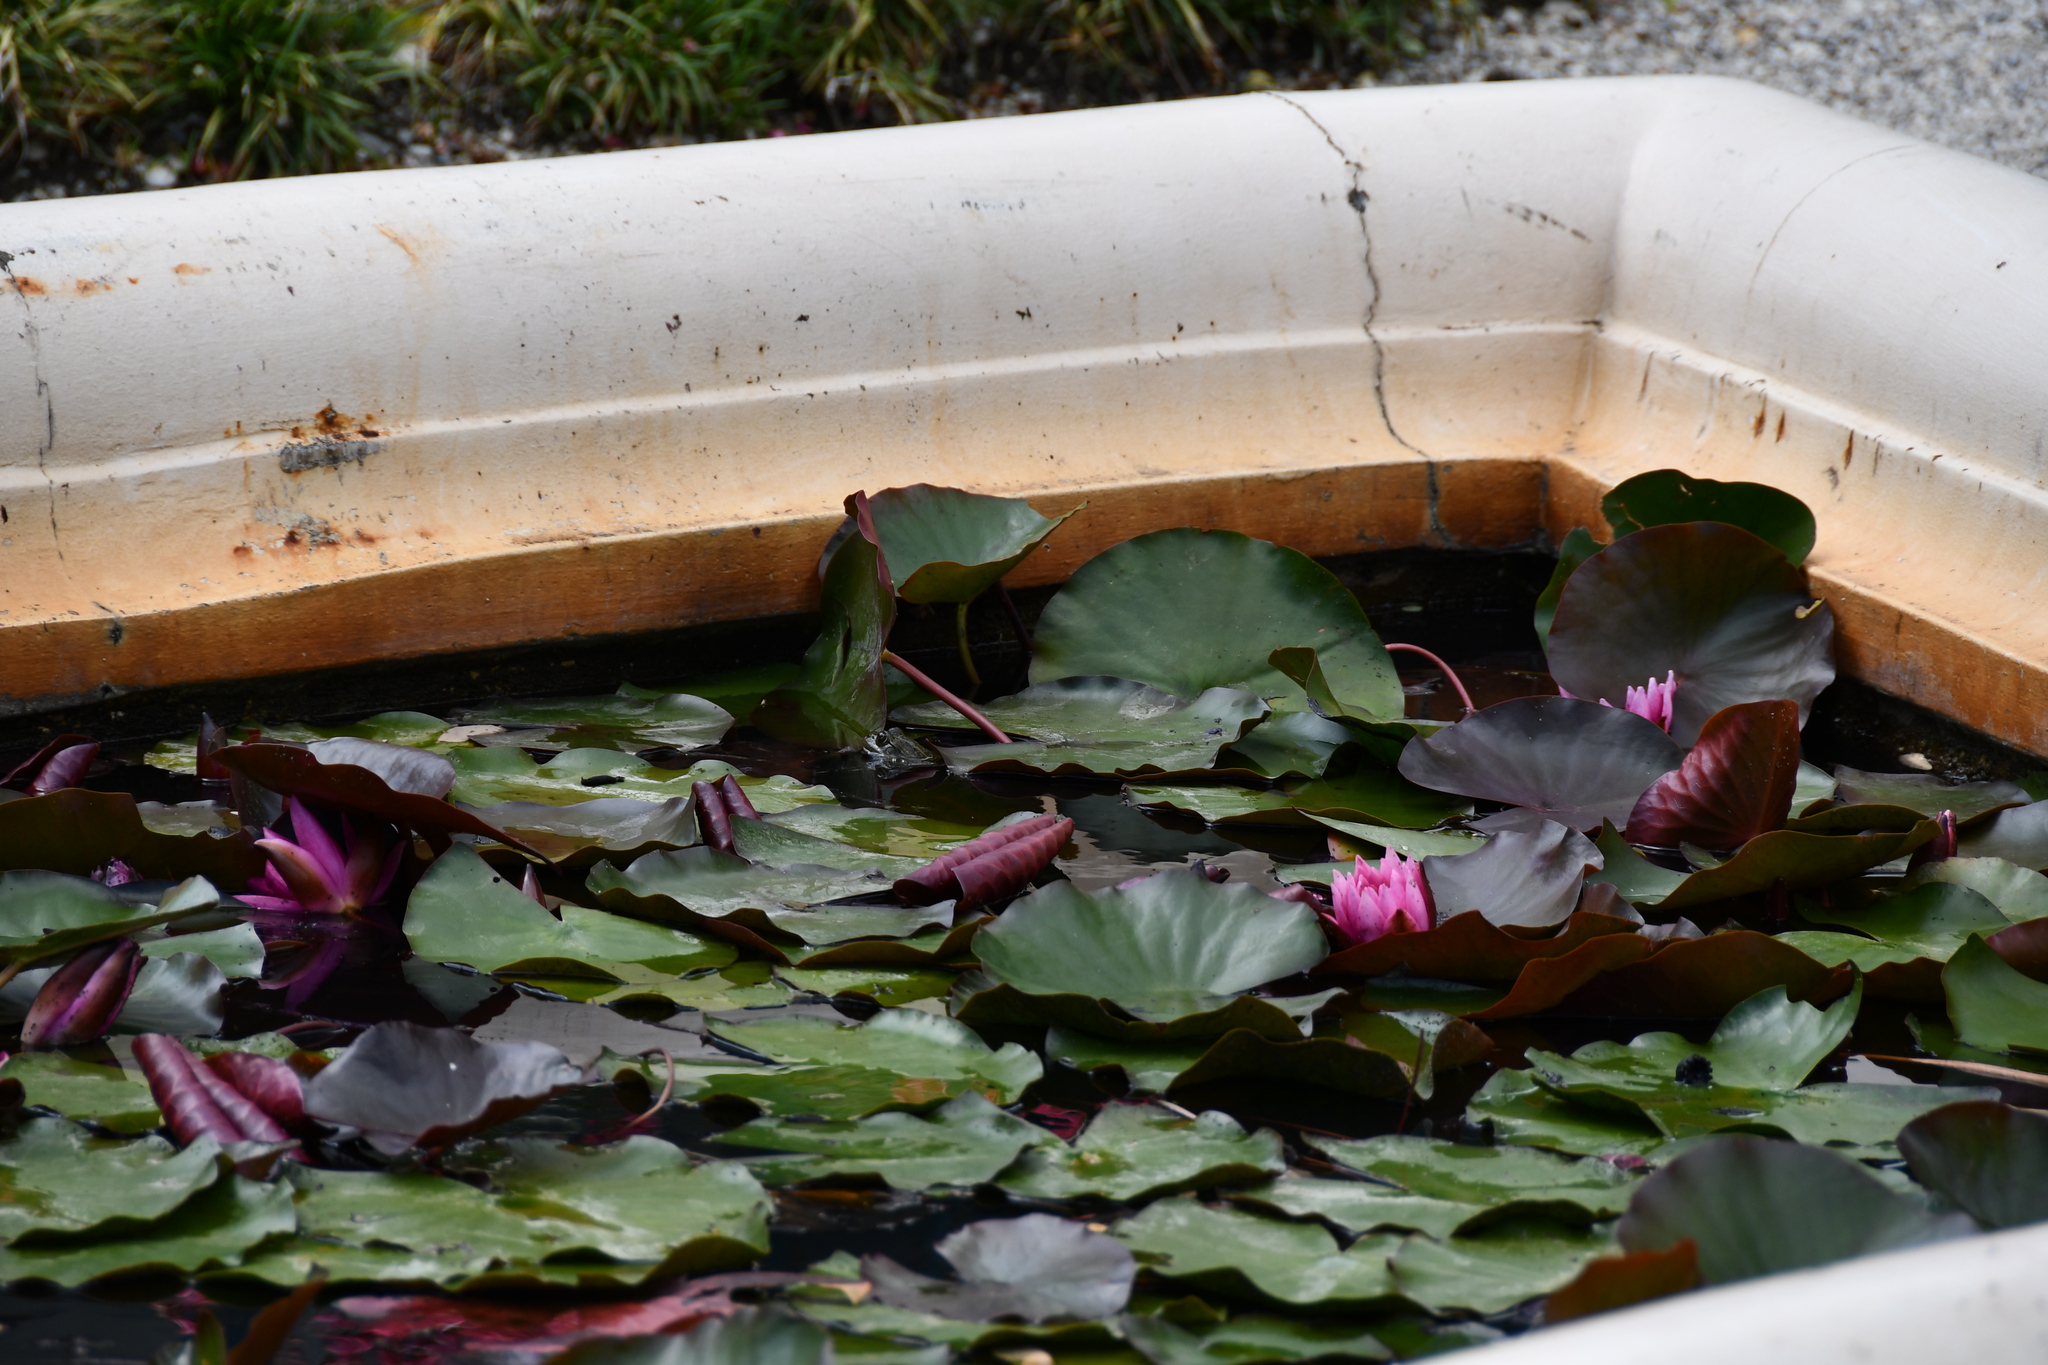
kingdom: Animalia
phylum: Chordata
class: Amphibia
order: Anura
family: Ranidae
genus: Pelophylax
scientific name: Pelophylax
